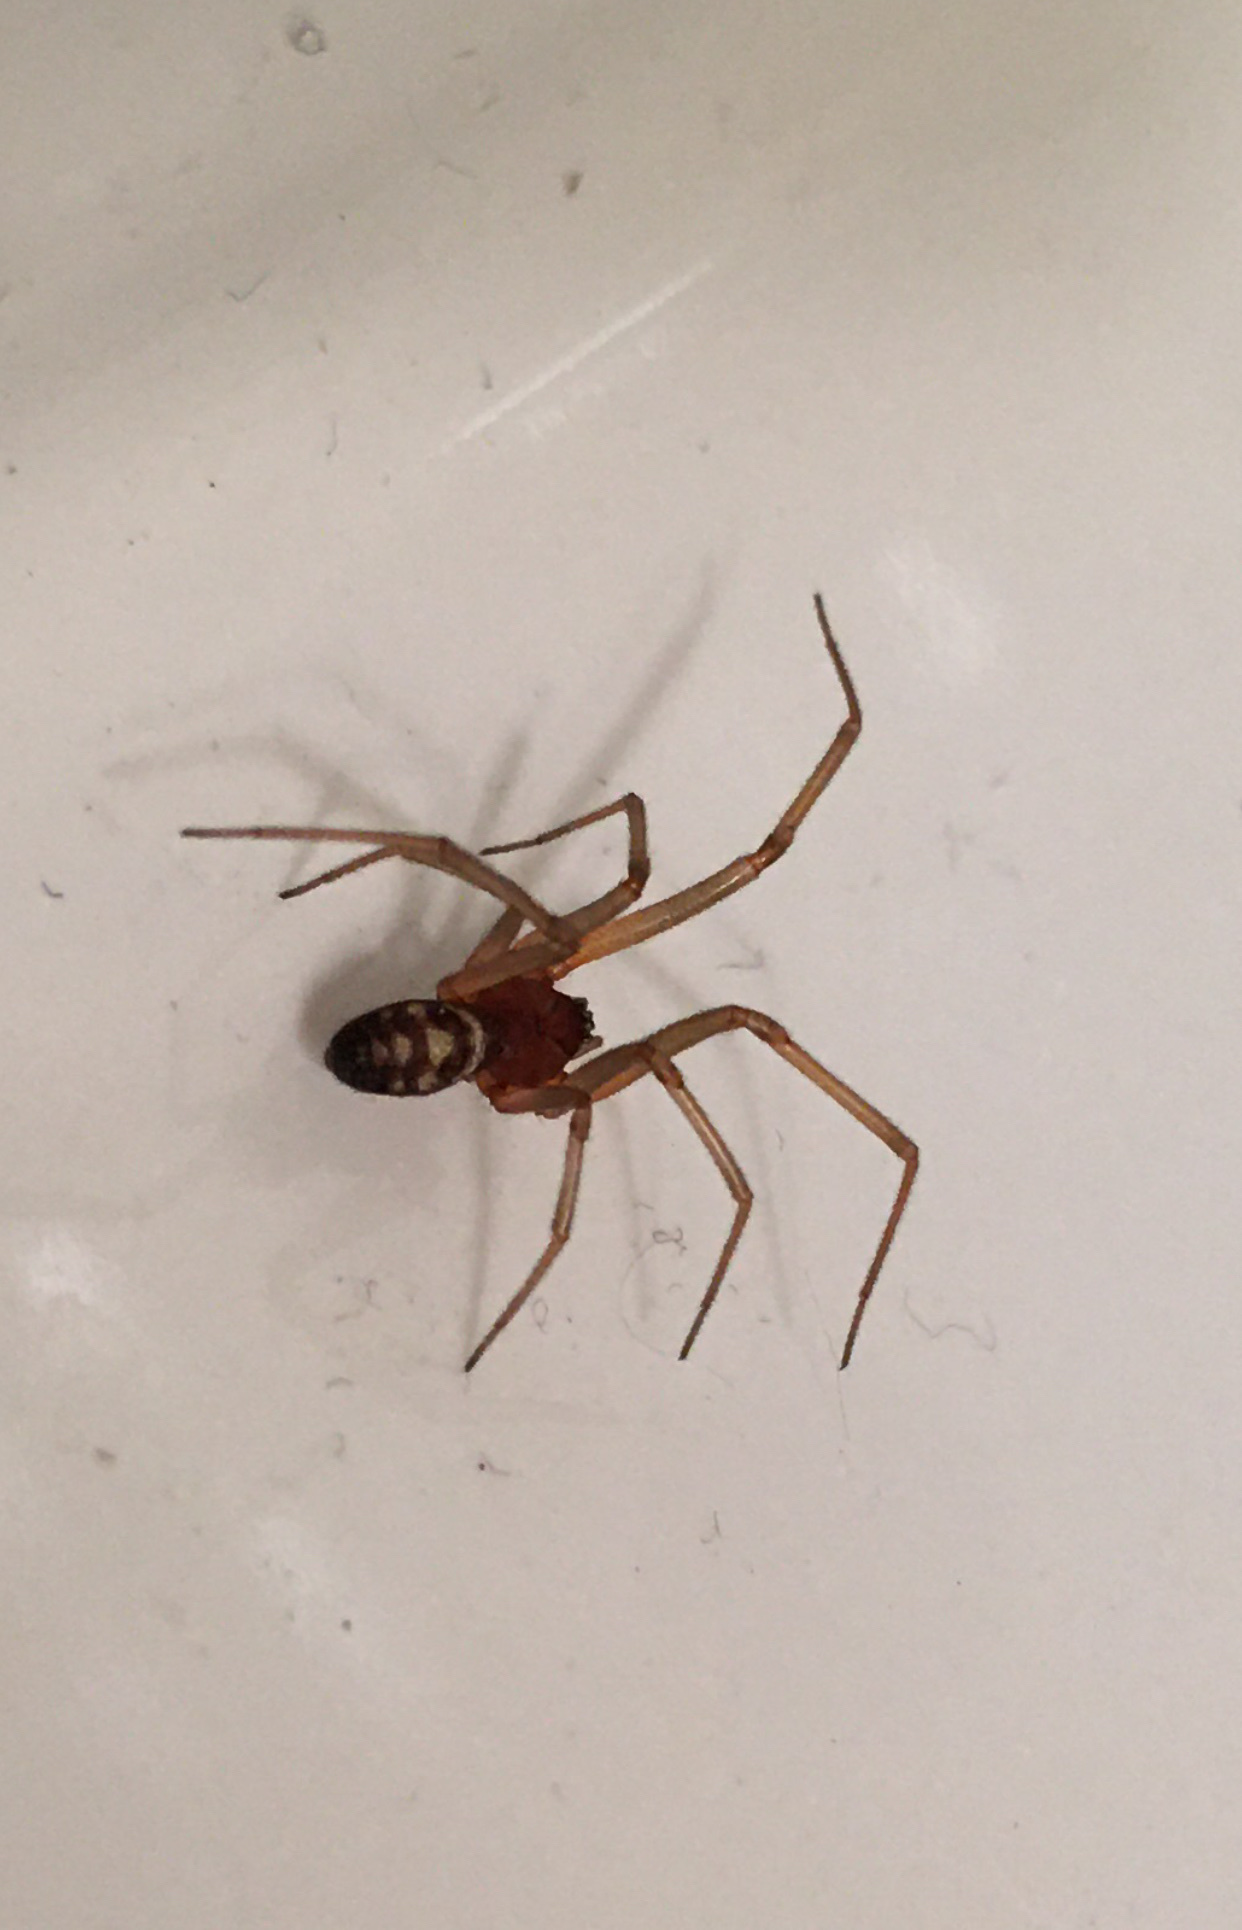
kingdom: Animalia
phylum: Arthropoda
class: Arachnida
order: Araneae
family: Theridiidae
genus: Steatoda
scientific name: Steatoda grossa
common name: False black widow
